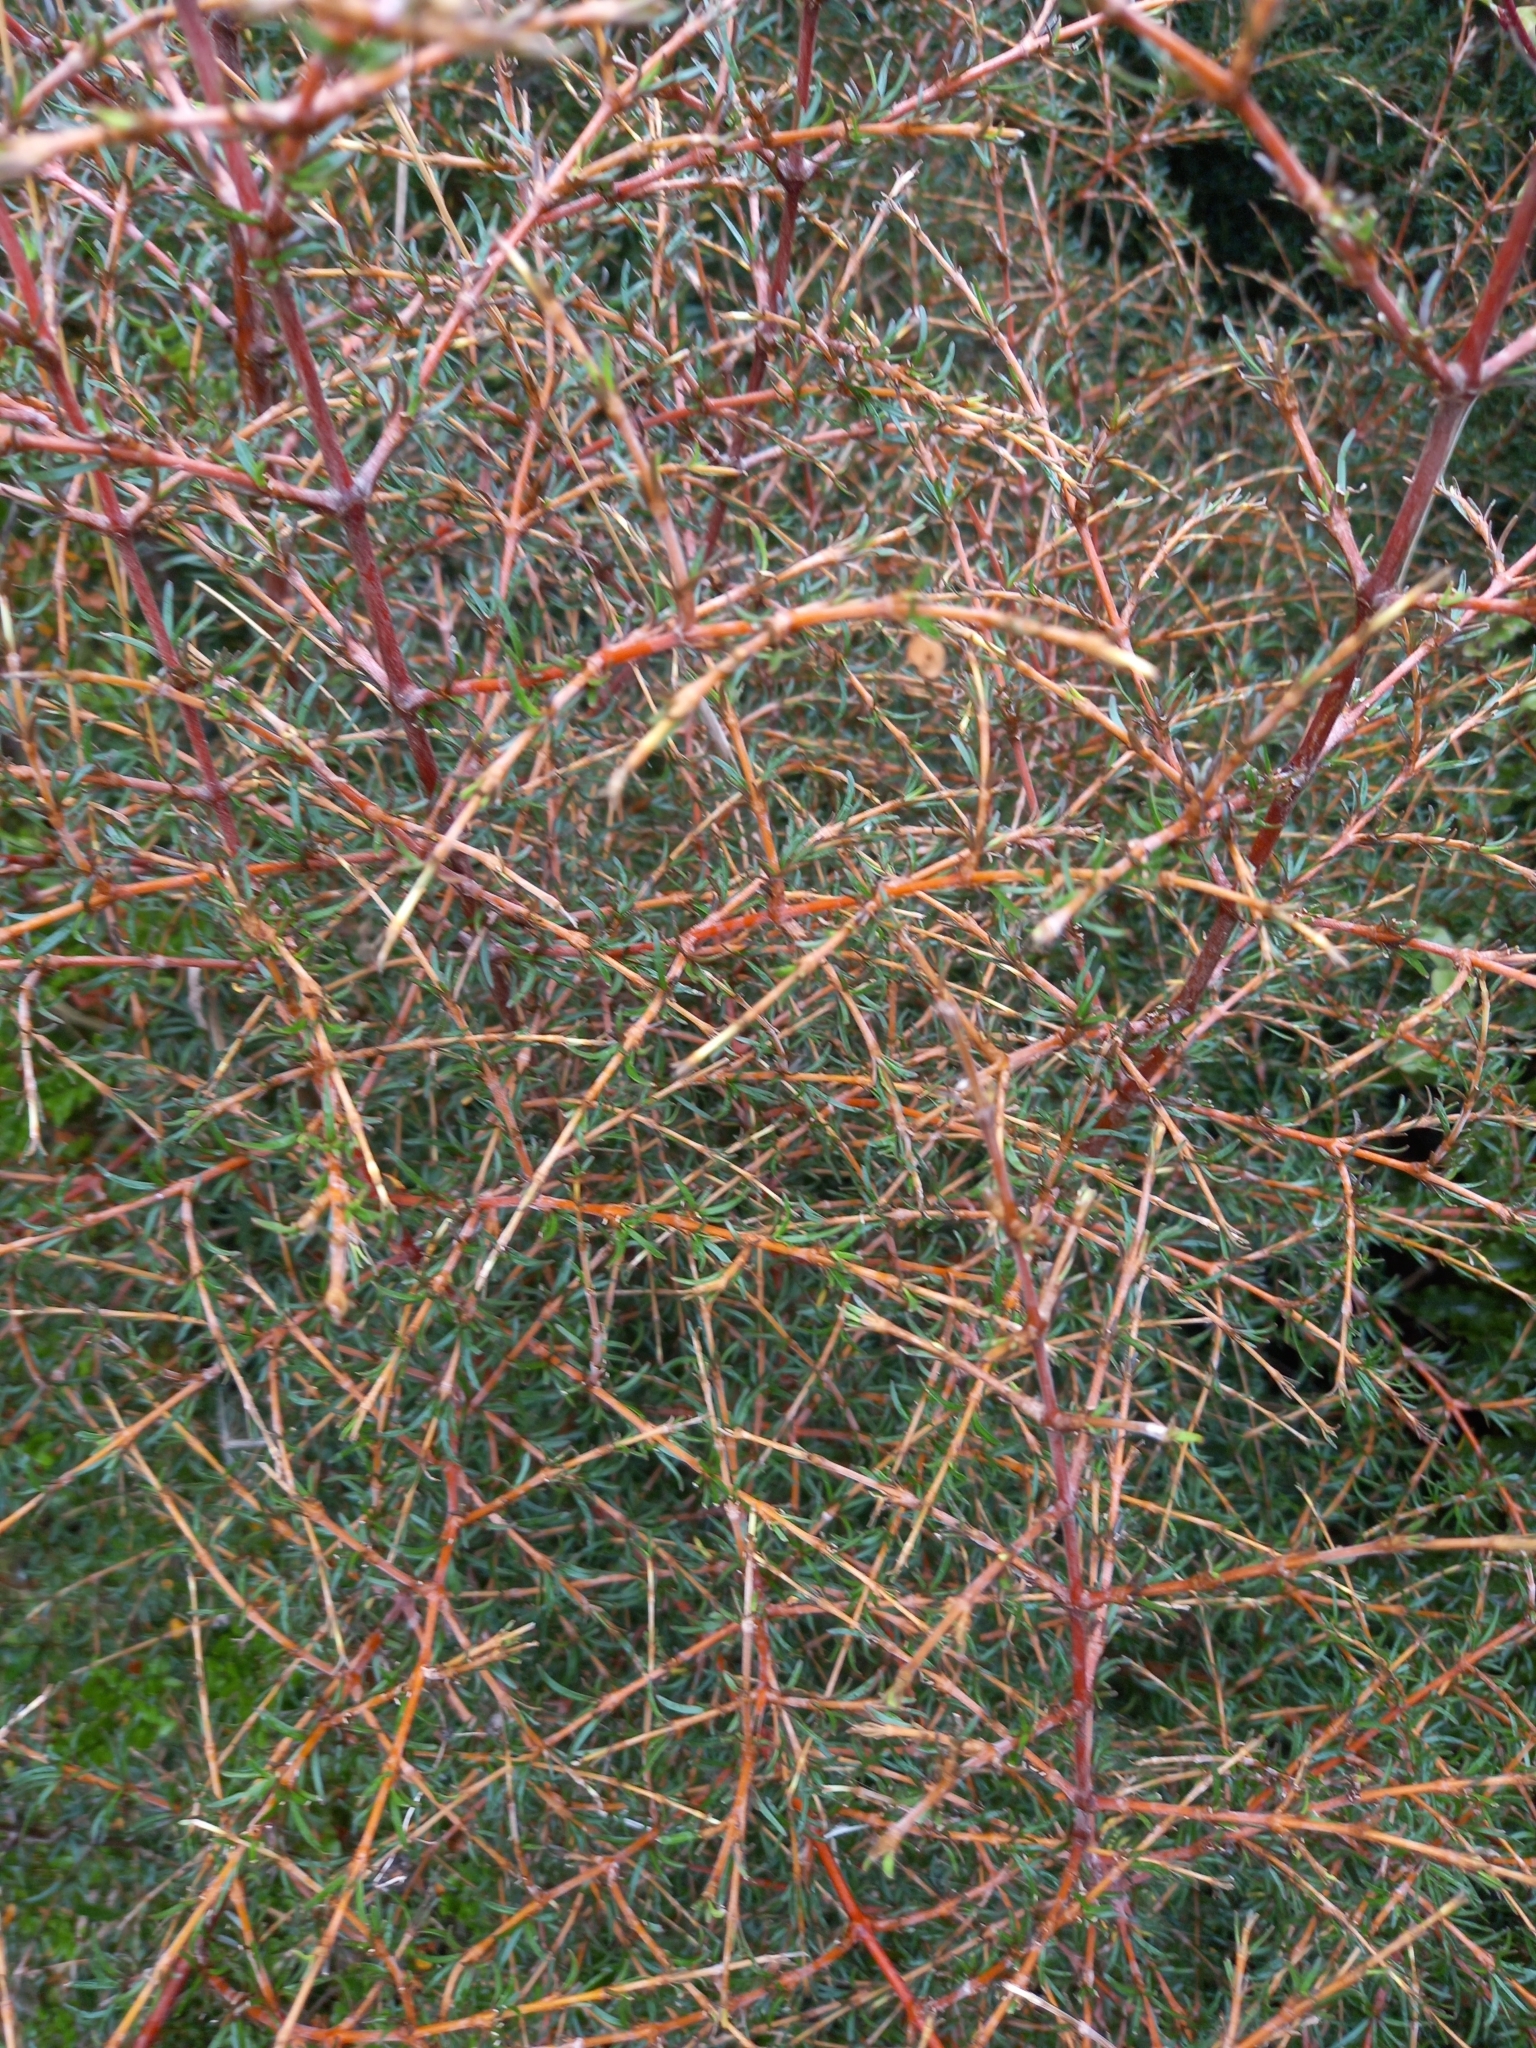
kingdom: Plantae
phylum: Tracheophyta
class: Magnoliopsida
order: Gentianales
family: Rubiaceae
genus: Coprosma
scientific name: Coprosma rugosa
